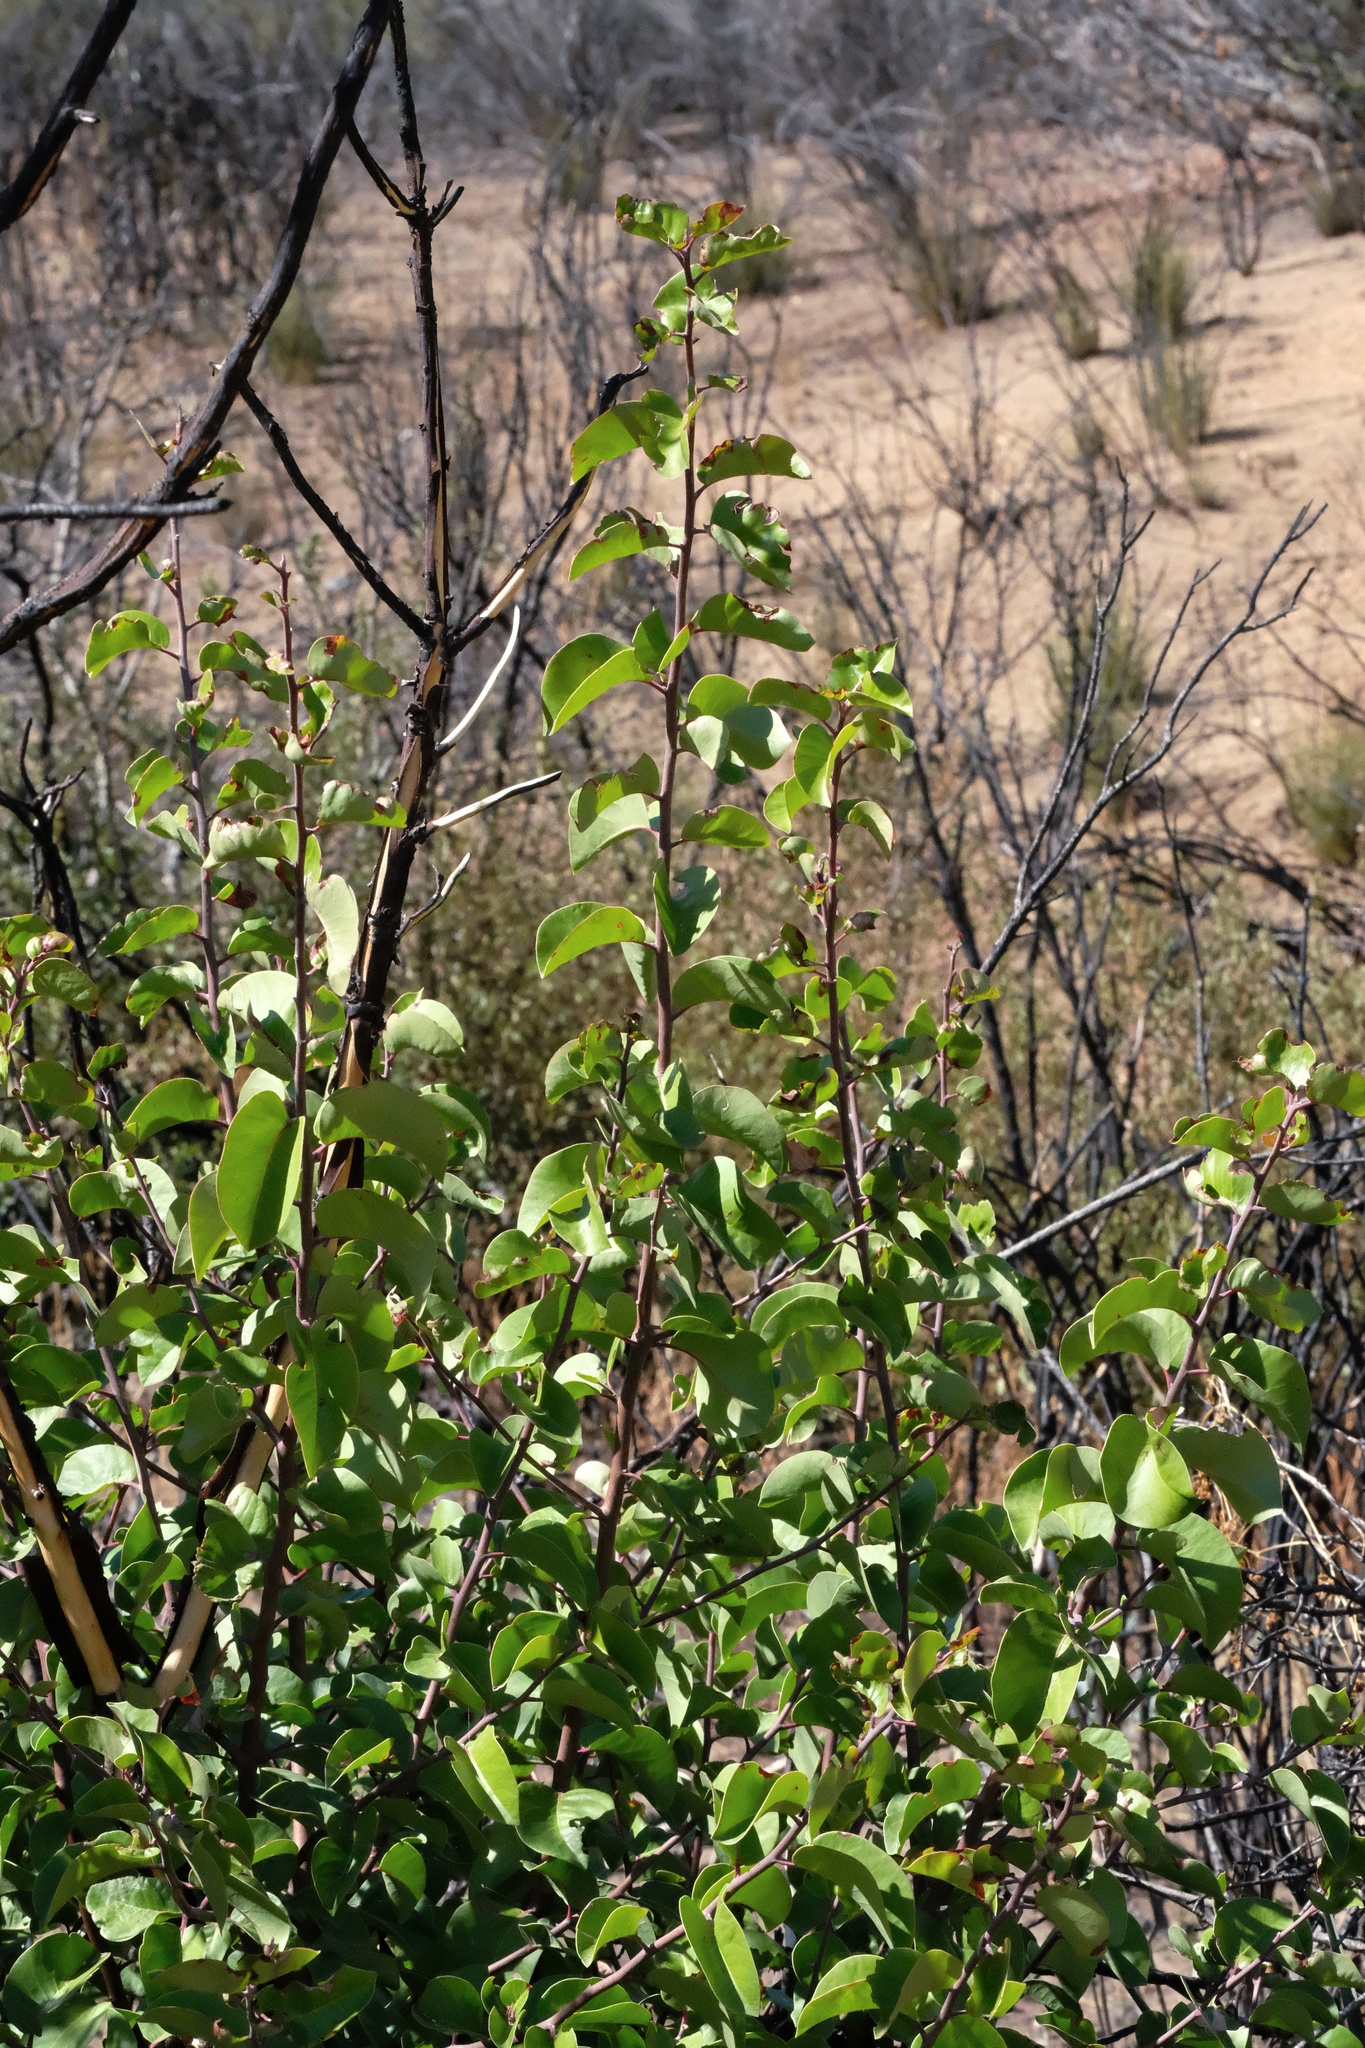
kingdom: Plantae
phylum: Tracheophyta
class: Magnoliopsida
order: Sapindales
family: Anacardiaceae
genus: Rhus
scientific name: Rhus ovata
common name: Sugar sumac
